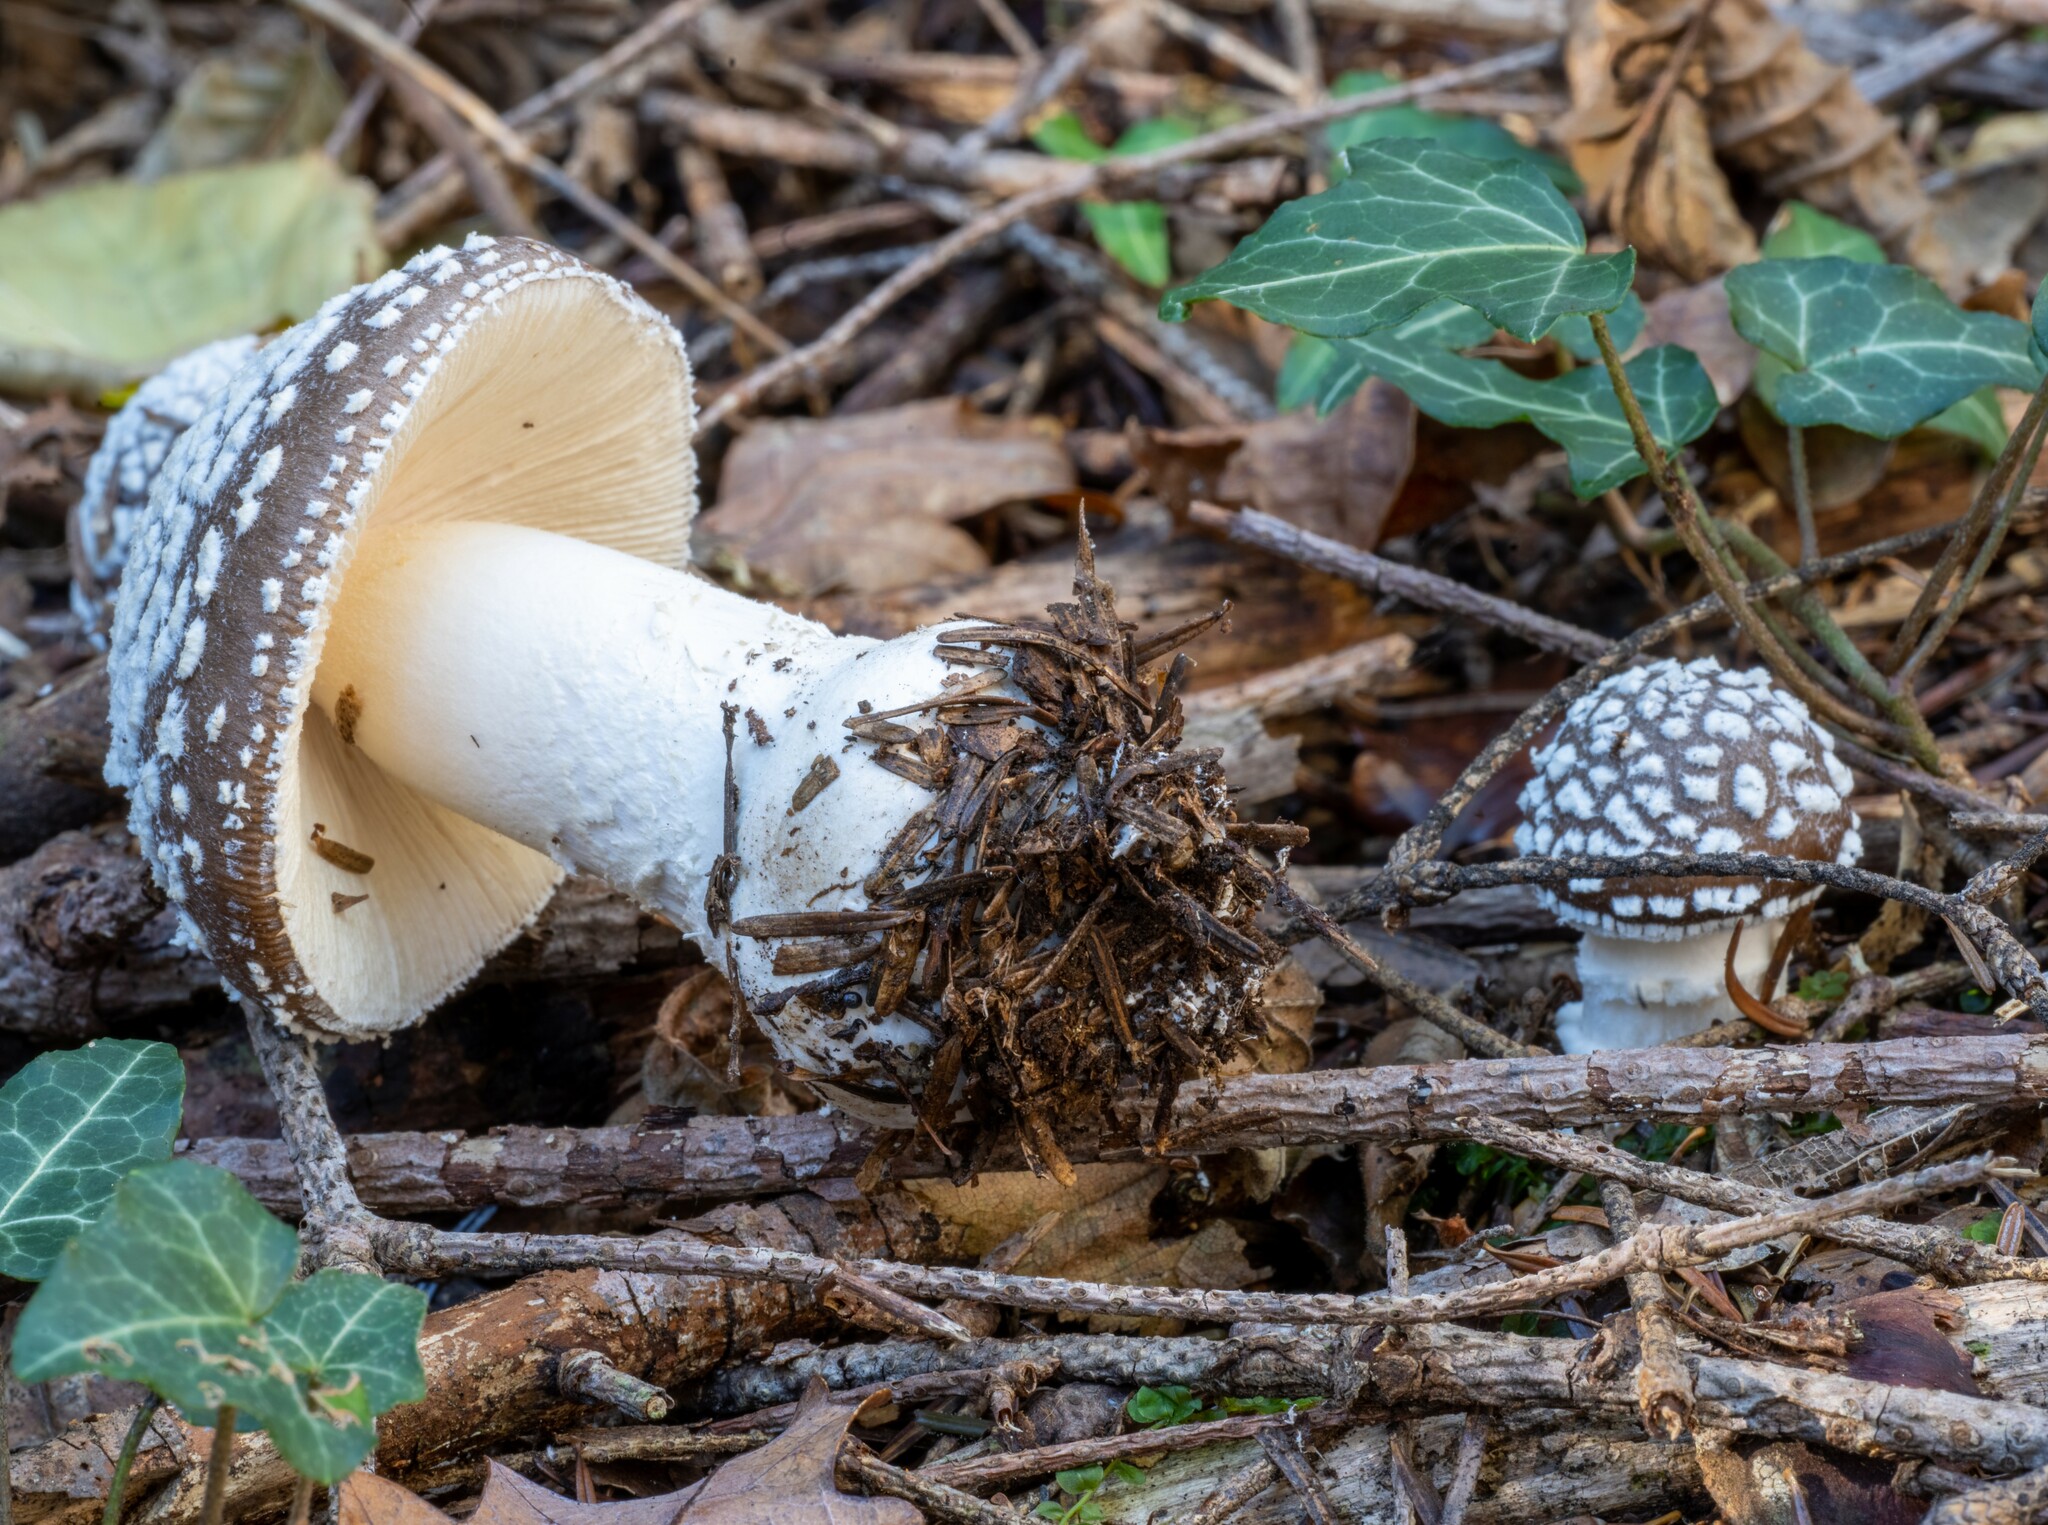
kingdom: Fungi
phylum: Basidiomycota
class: Agaricomycetes
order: Agaricales
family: Amanitaceae
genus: Amanita
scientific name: Amanita pantherina
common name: Panthercap
